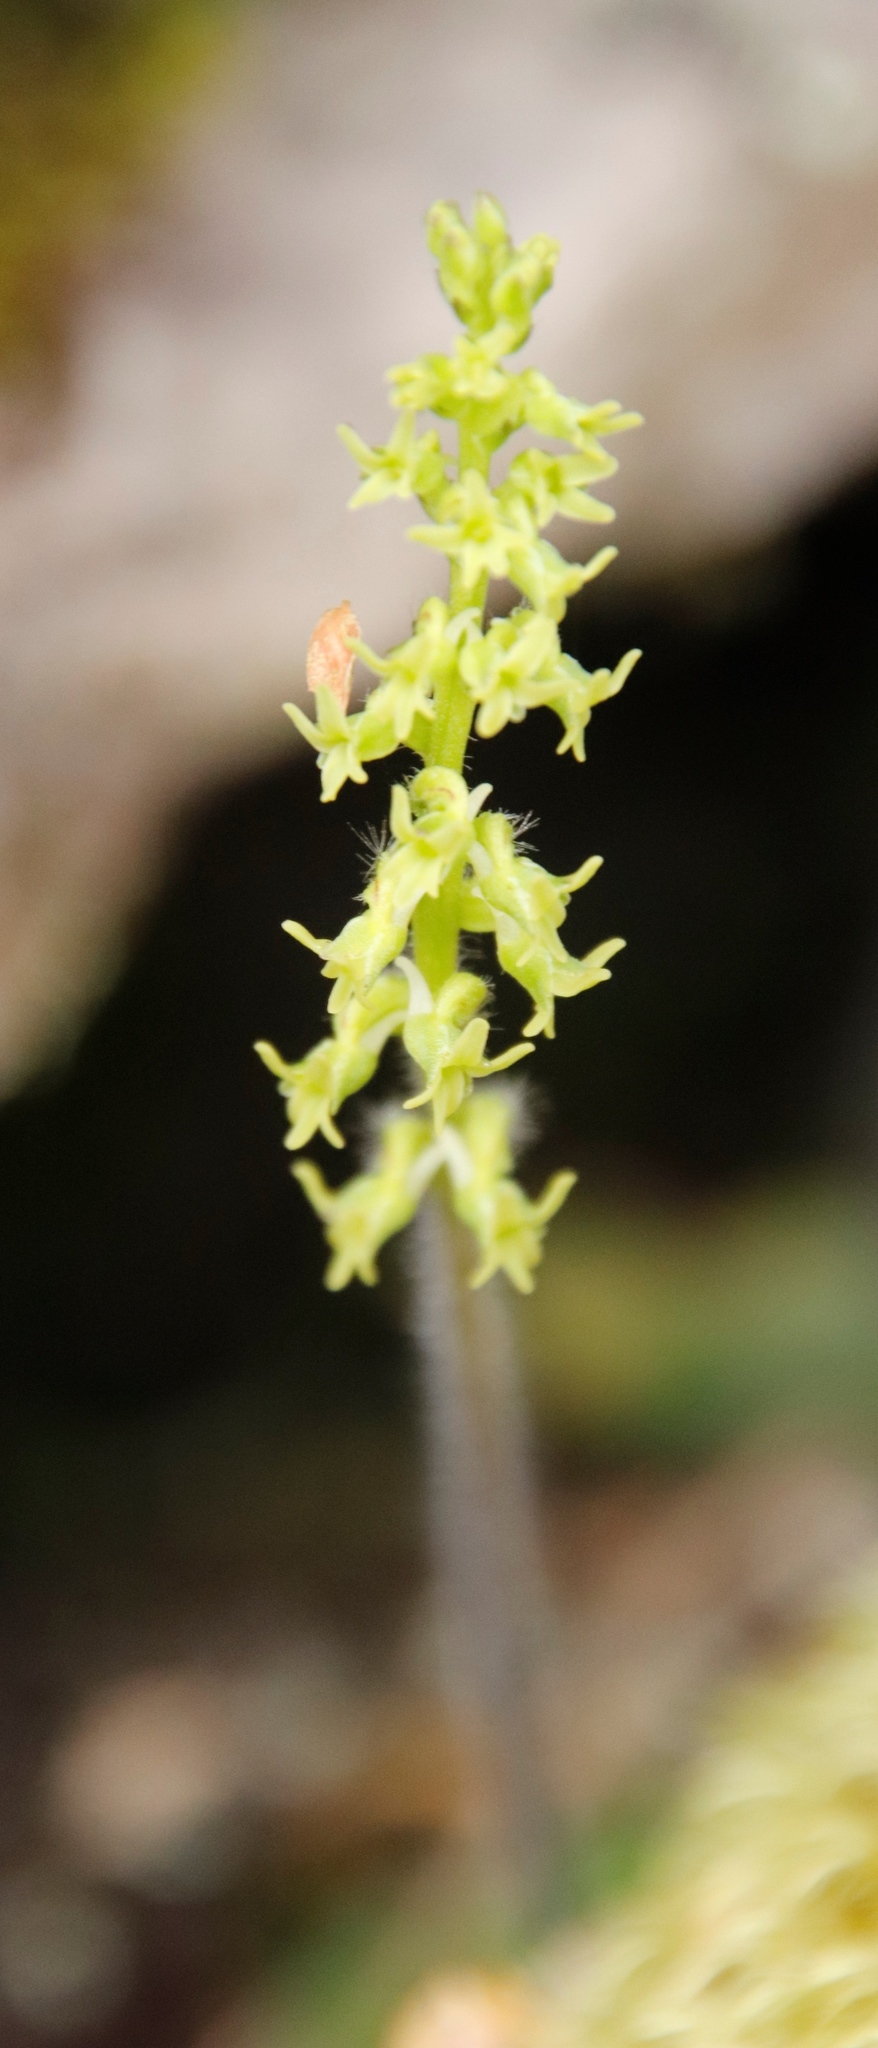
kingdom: Plantae
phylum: Tracheophyta
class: Liliopsida
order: Asparagales
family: Orchidaceae
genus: Holothrix
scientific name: Holothrix condensata
